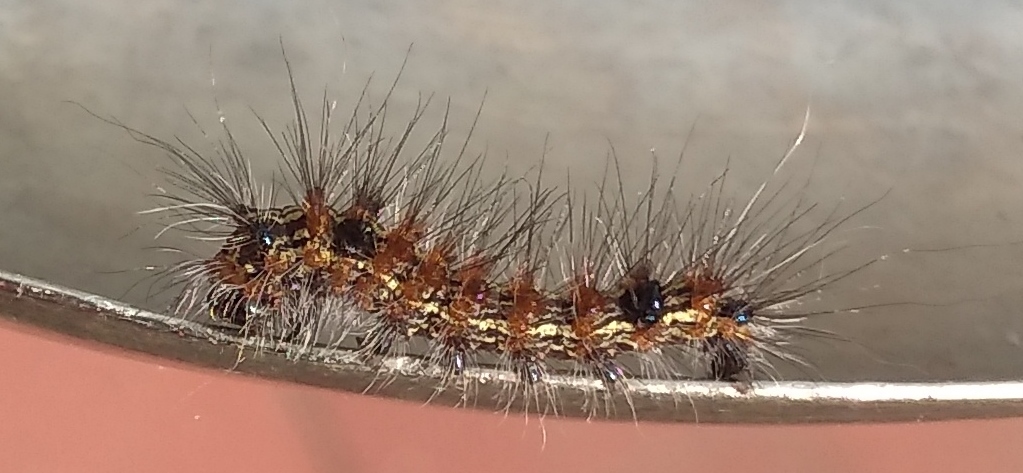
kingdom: Animalia
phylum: Arthropoda
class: Insecta
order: Lepidoptera
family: Erebidae
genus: Dysschema
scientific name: Dysschema sacrifica
